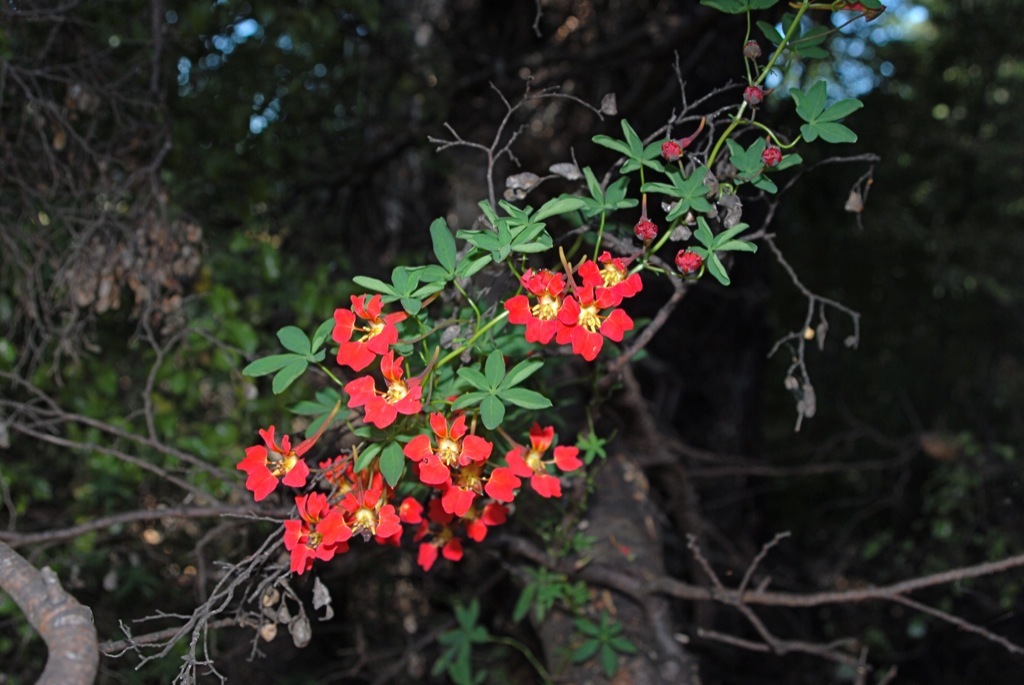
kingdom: Plantae
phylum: Tracheophyta
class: Magnoliopsida
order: Brassicales
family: Tropaeolaceae
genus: Tropaeolum
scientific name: Tropaeolum speciosum
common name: Flame nasturtium
